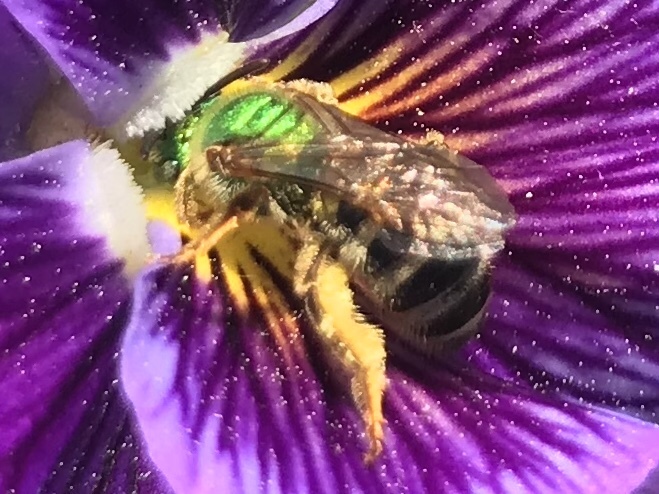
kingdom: Animalia
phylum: Arthropoda
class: Insecta
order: Hymenoptera
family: Halictidae
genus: Agapostemon
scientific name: Agapostemon virescens
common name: Bicolored striped sweat bee
